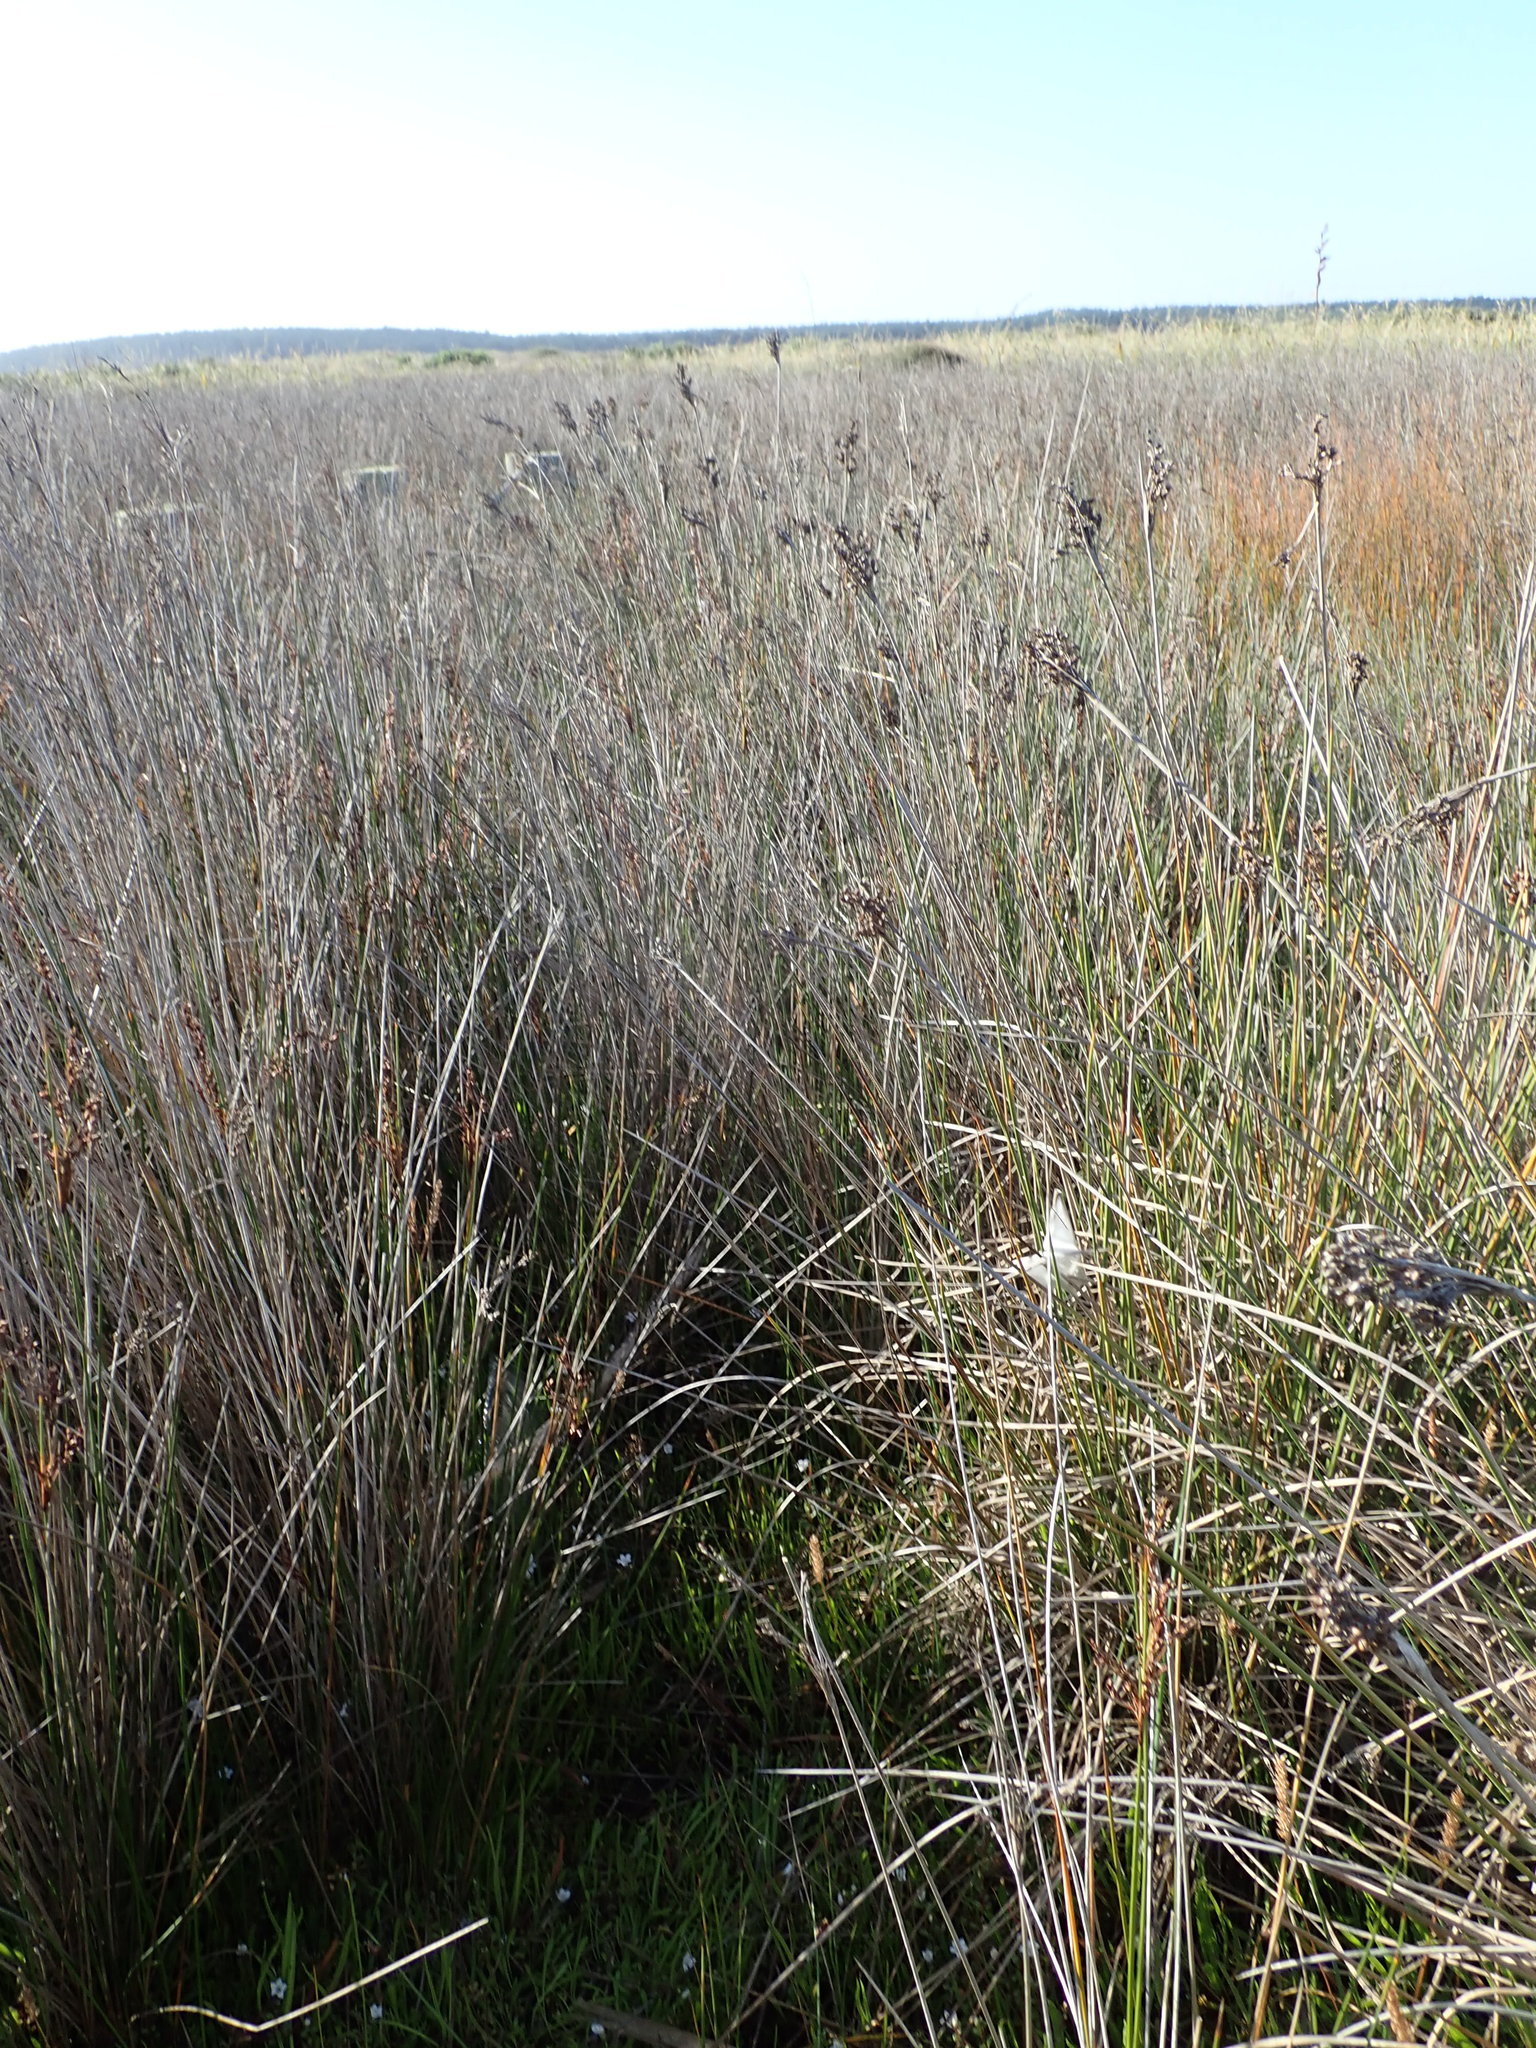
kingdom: Animalia
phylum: Arthropoda
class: Arachnida
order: Araneae
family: Pisauridae
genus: Dolomedes
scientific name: Dolomedes minor
